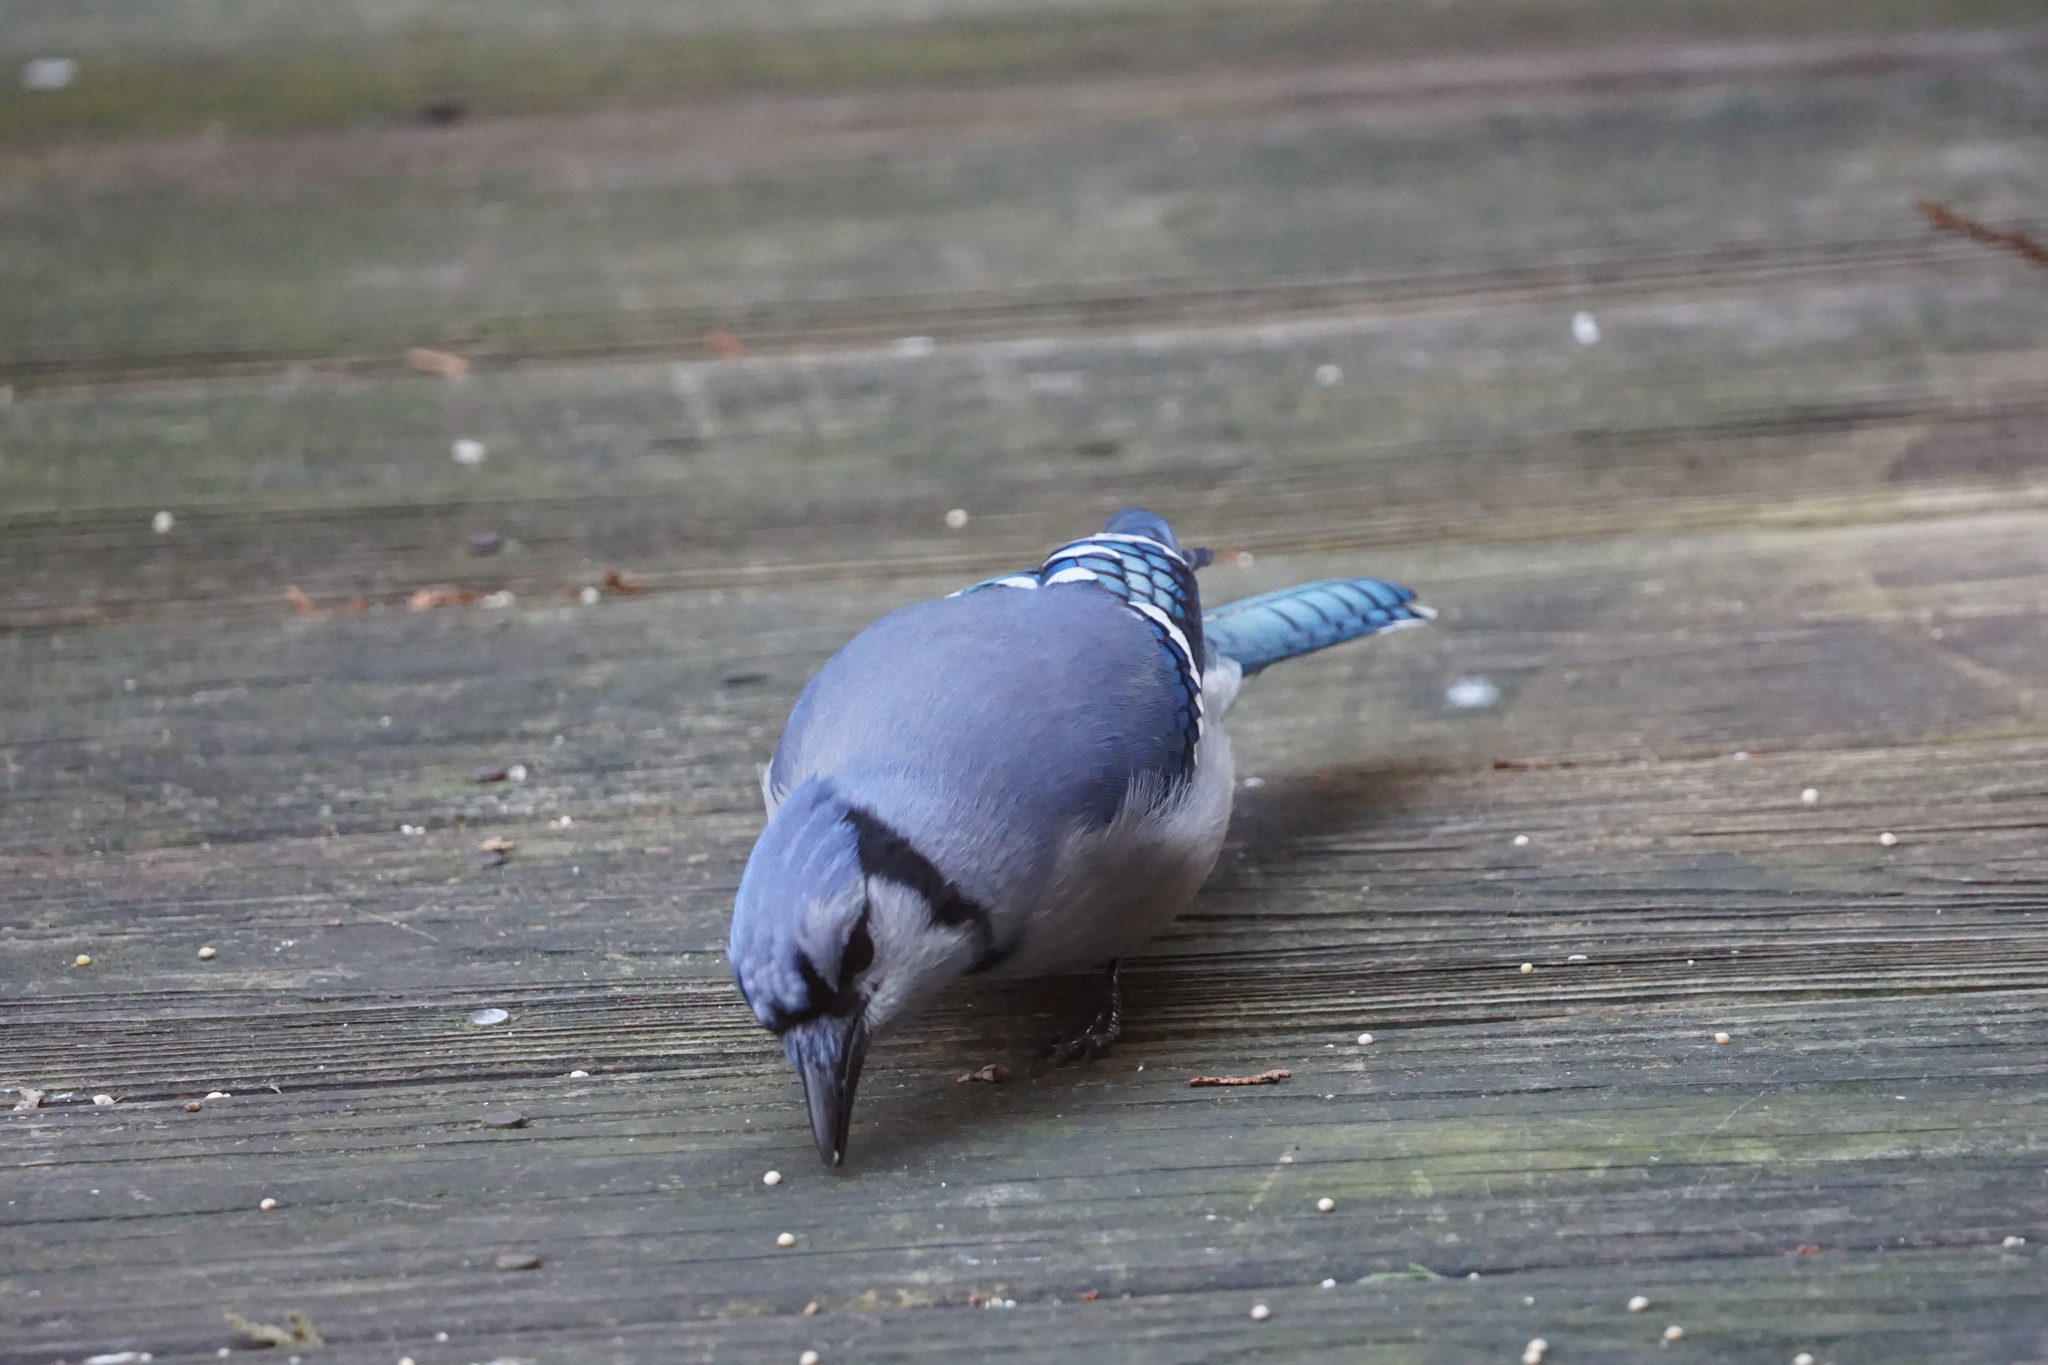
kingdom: Animalia
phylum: Chordata
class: Aves
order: Passeriformes
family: Corvidae
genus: Cyanocitta
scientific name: Cyanocitta cristata
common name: Blue jay
